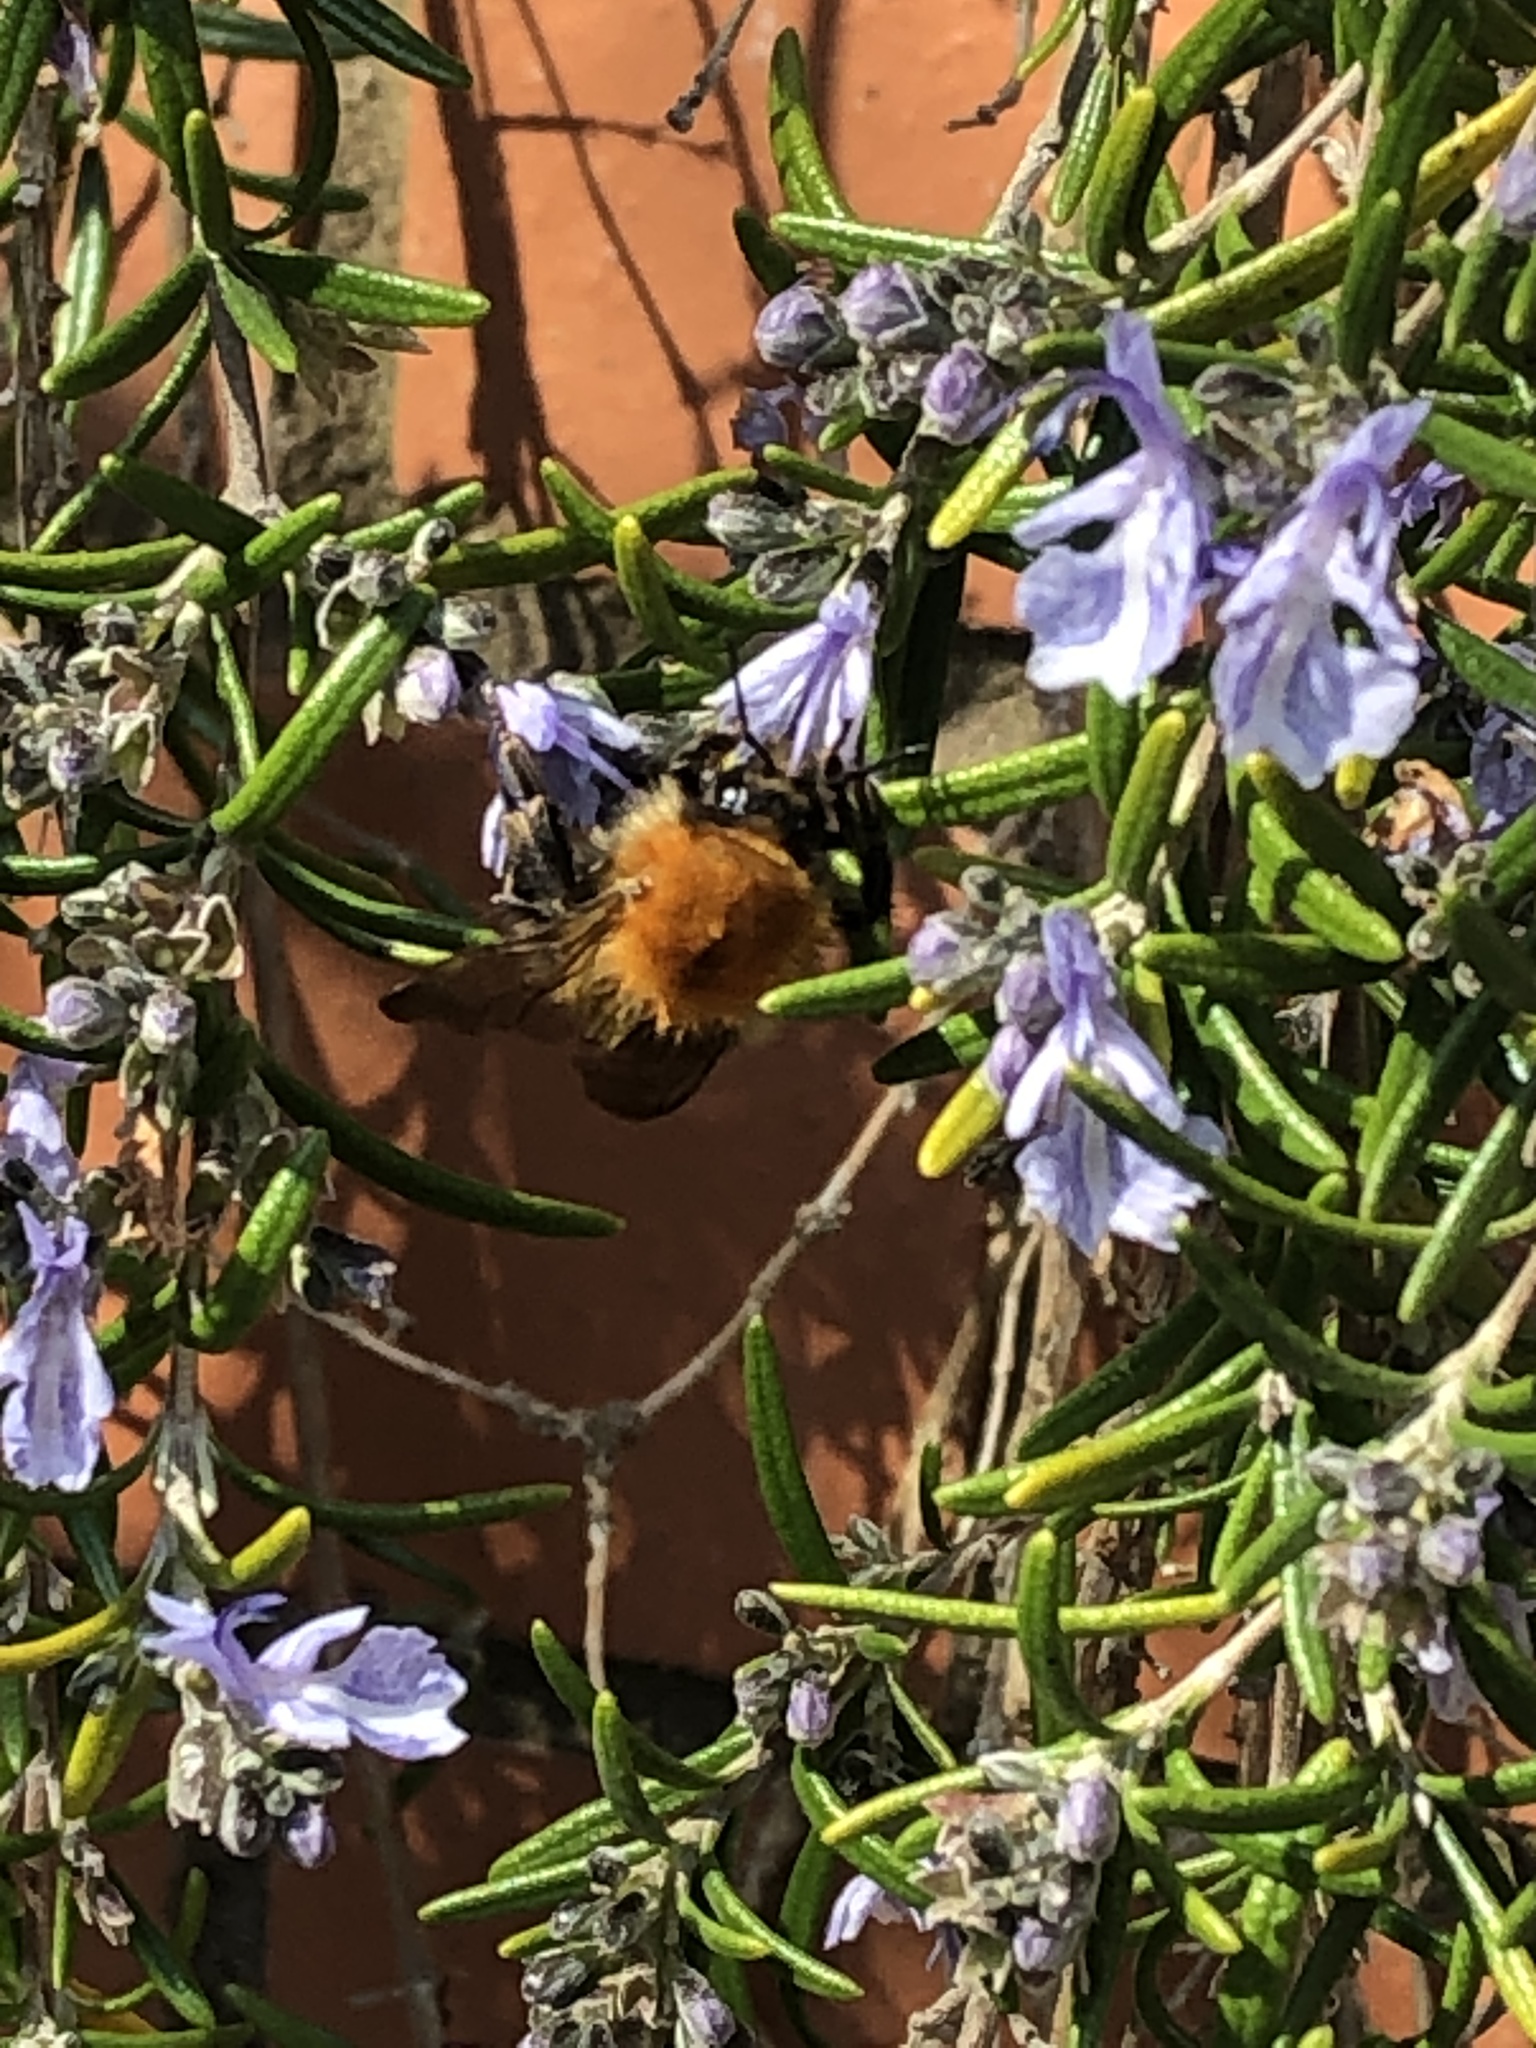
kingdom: Animalia
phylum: Arthropoda
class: Insecta
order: Hymenoptera
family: Apidae
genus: Bombus
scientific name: Bombus pascuorum
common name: Common carder bee
